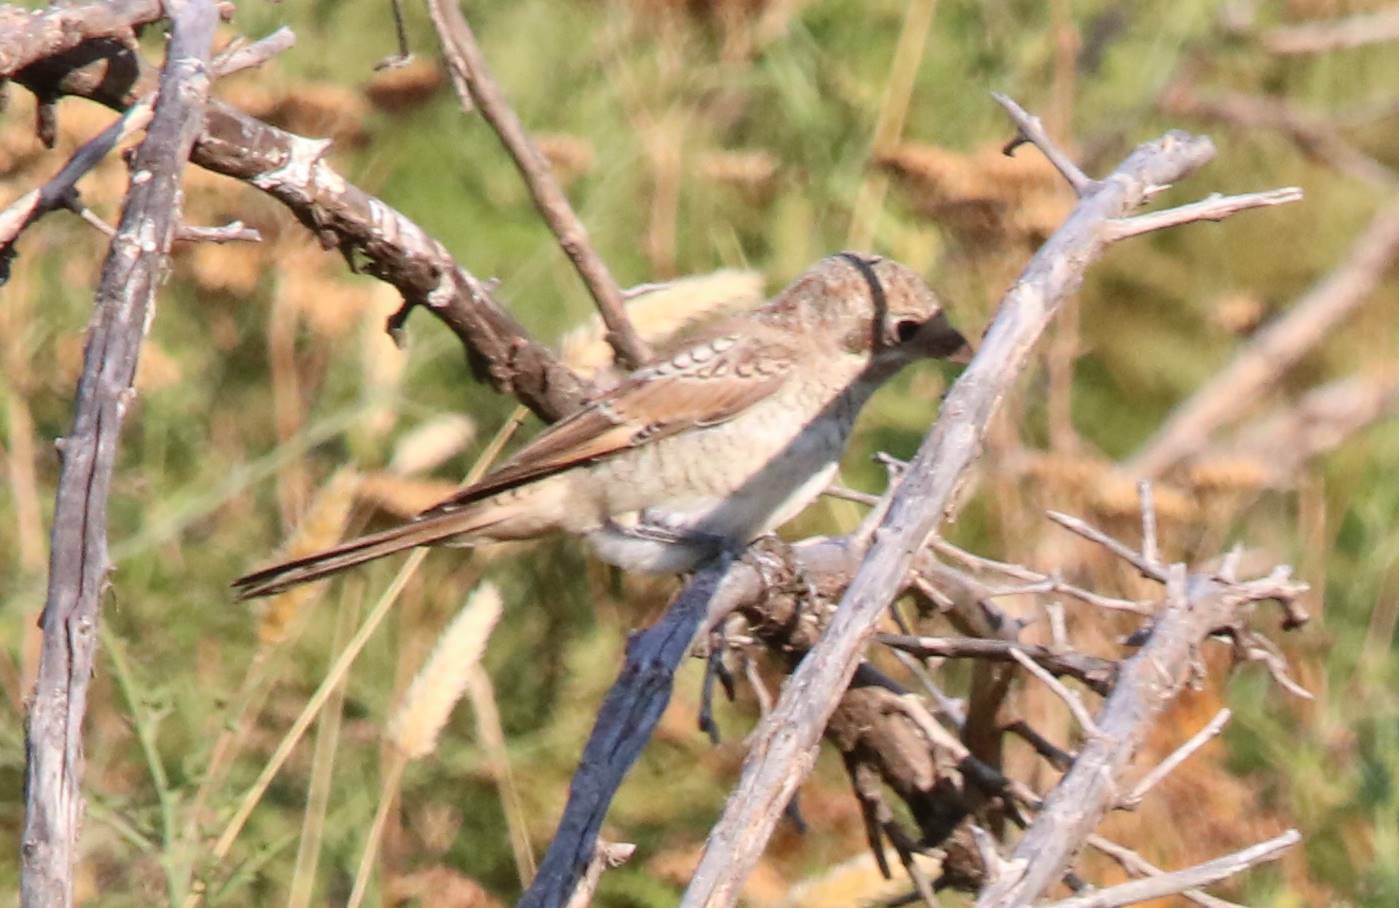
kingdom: Animalia
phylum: Chordata
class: Aves
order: Passeriformes
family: Laniidae
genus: Lanius
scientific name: Lanius senator
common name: Woodchat shrike
